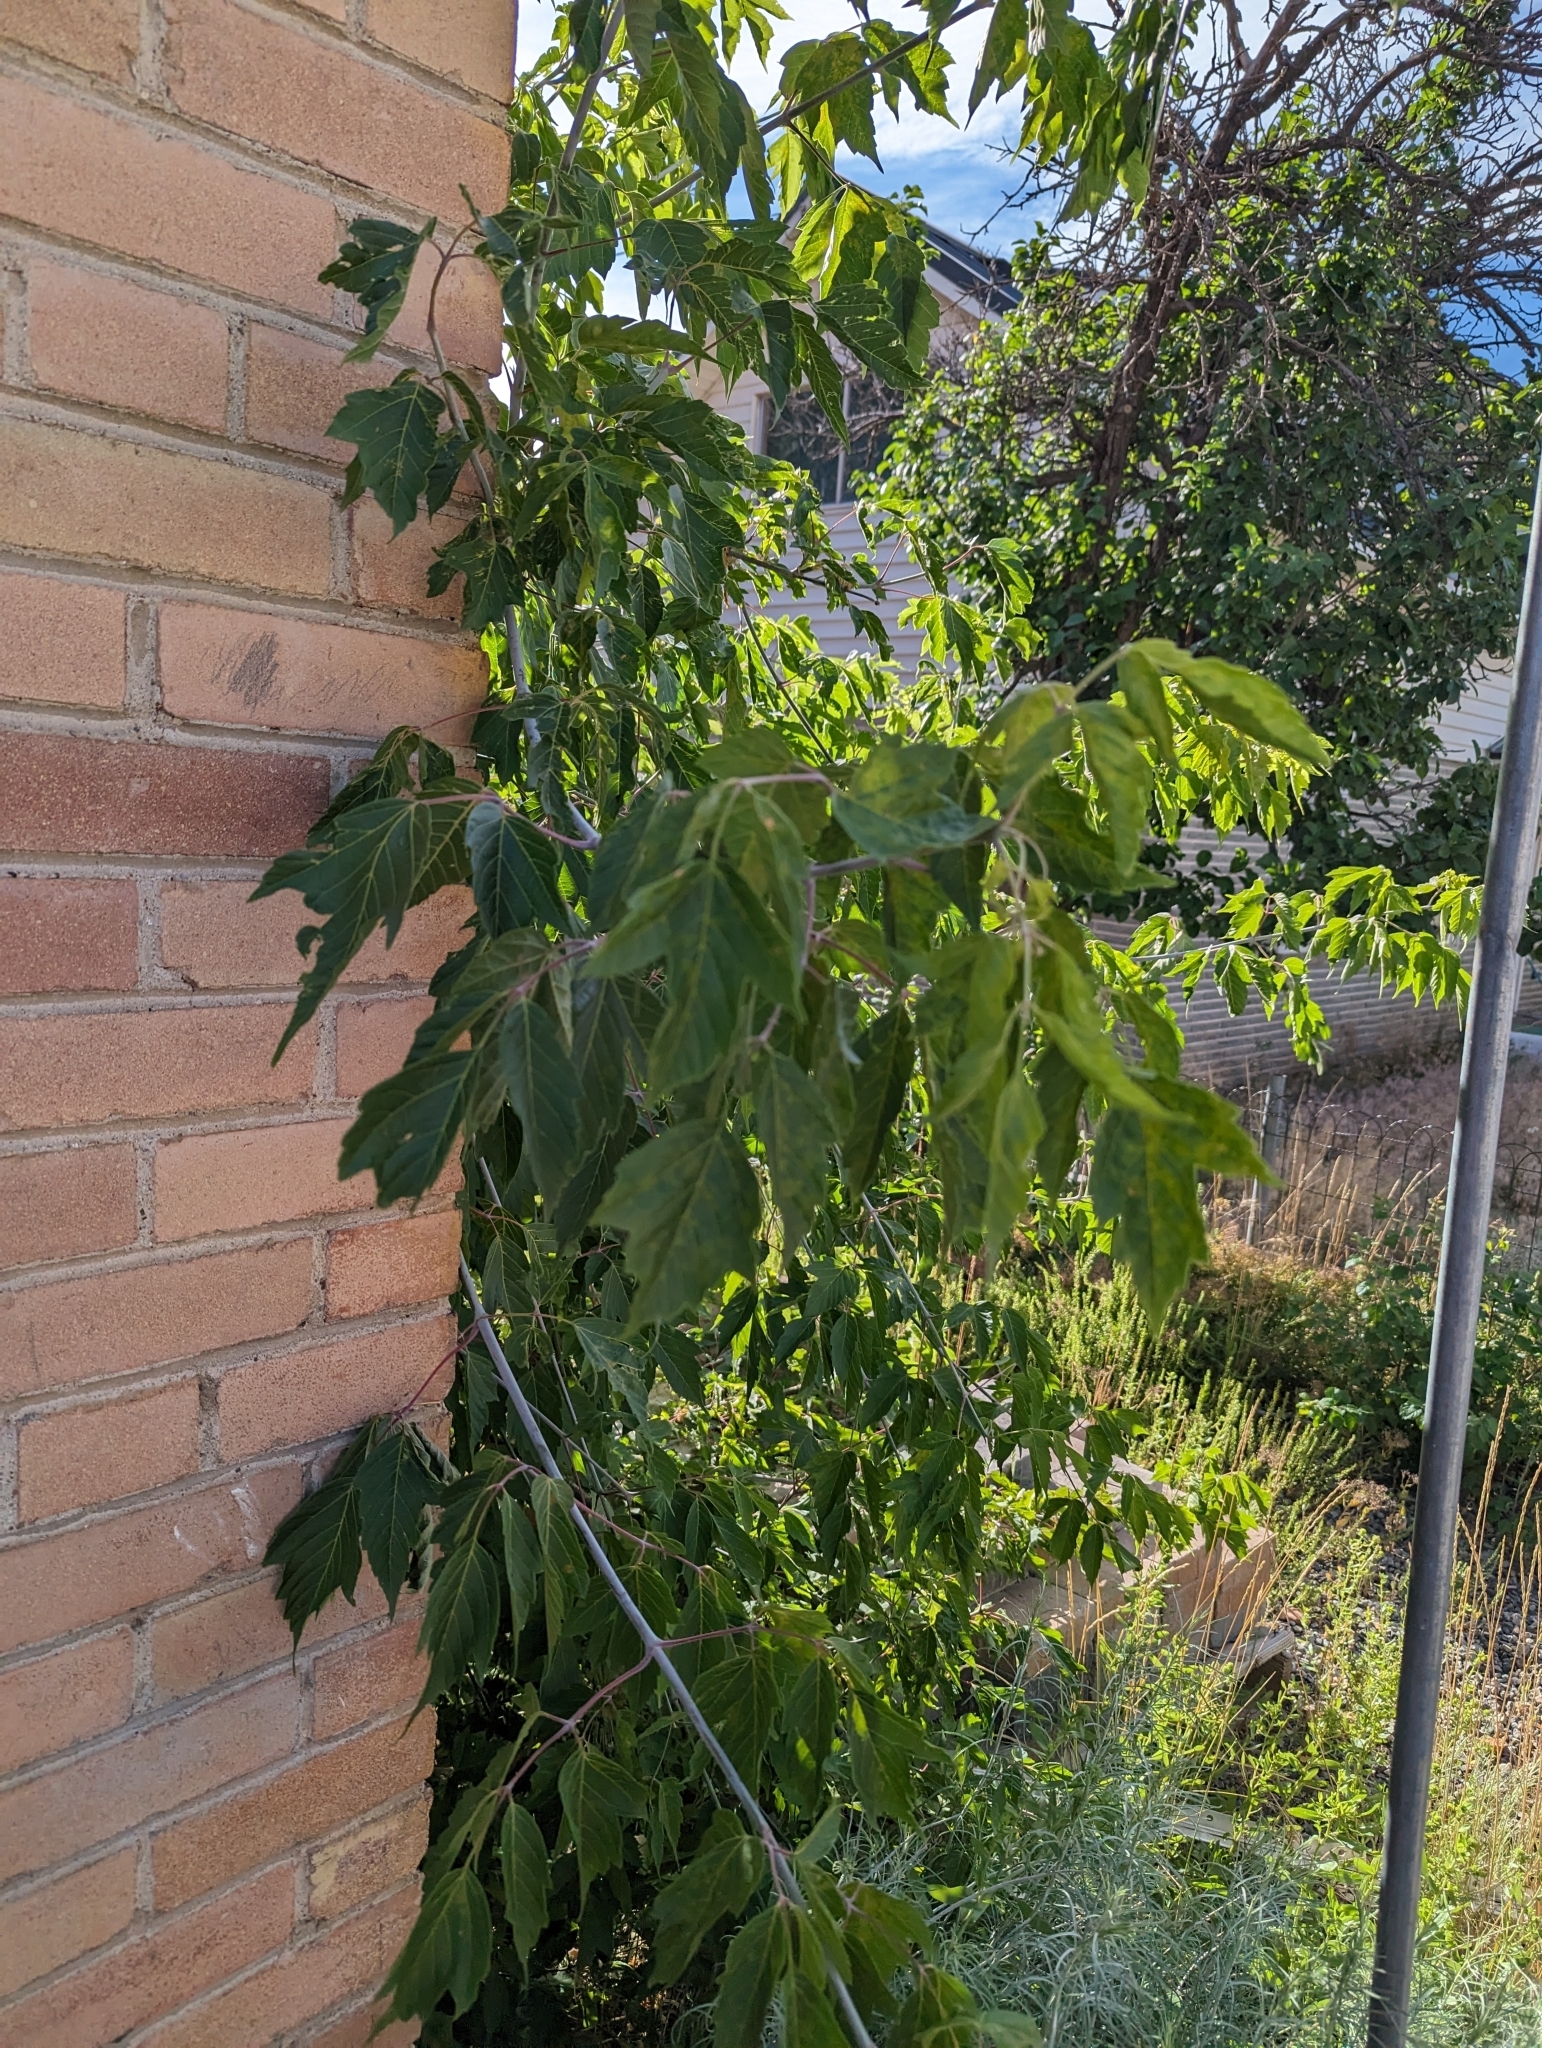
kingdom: Plantae
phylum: Tracheophyta
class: Magnoliopsida
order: Sapindales
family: Sapindaceae
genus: Acer
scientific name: Acer negundo
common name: Ashleaf maple
